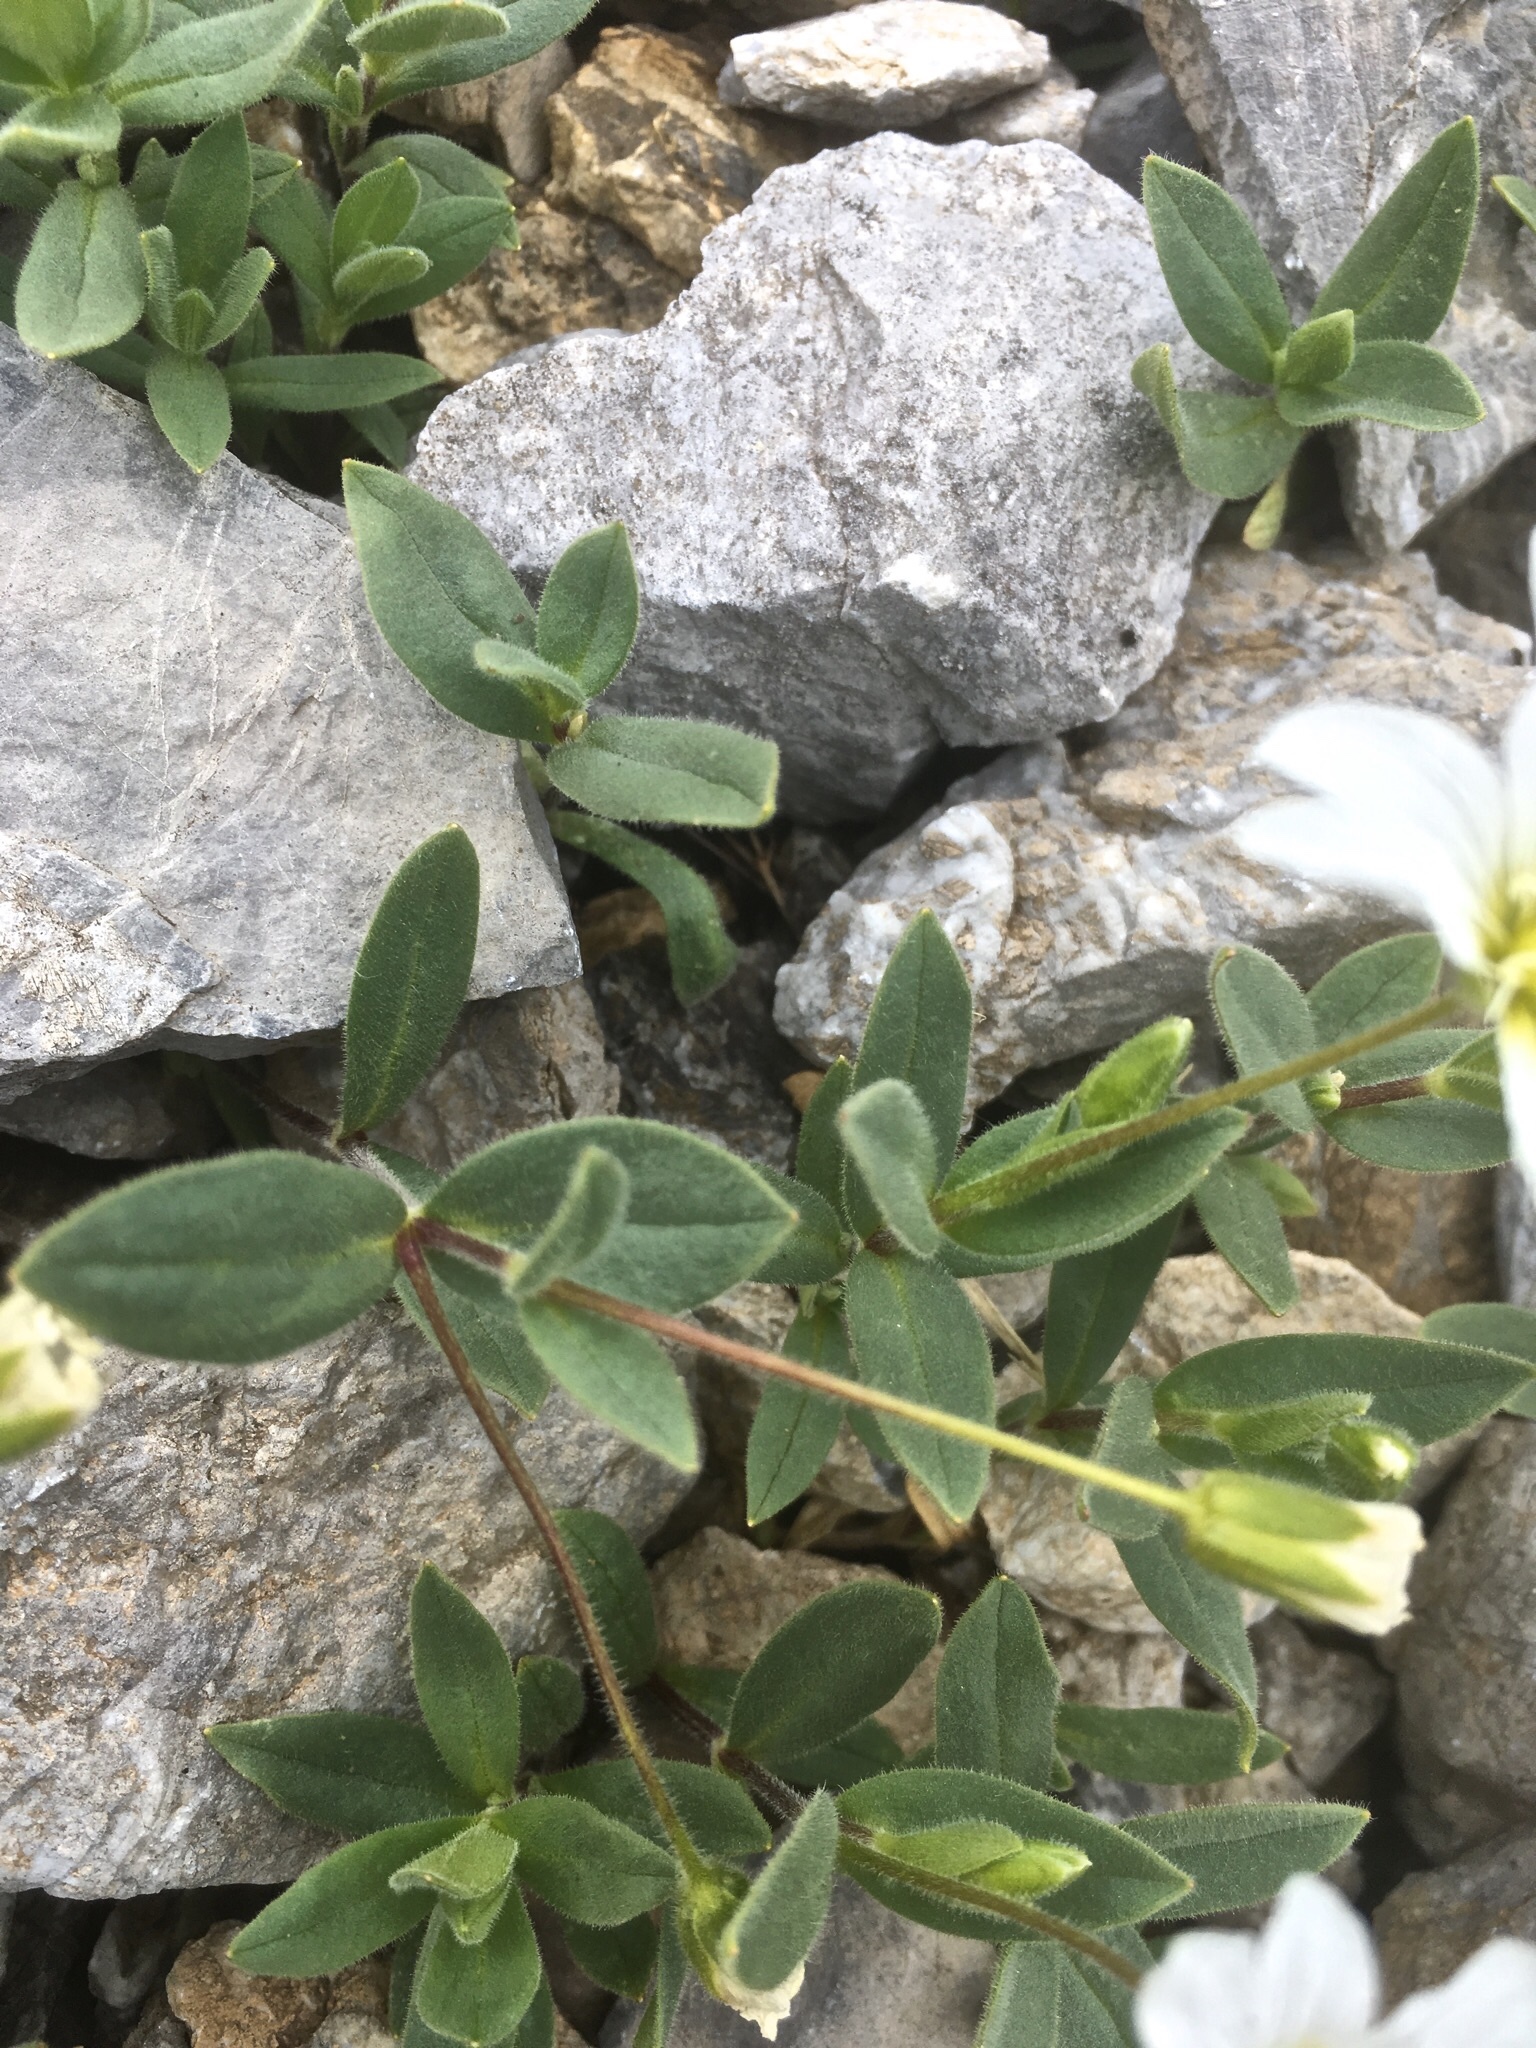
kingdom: Plantae
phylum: Tracheophyta
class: Magnoliopsida
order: Caryophyllales
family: Caryophyllaceae
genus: Cerastium
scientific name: Cerastium latifolium
